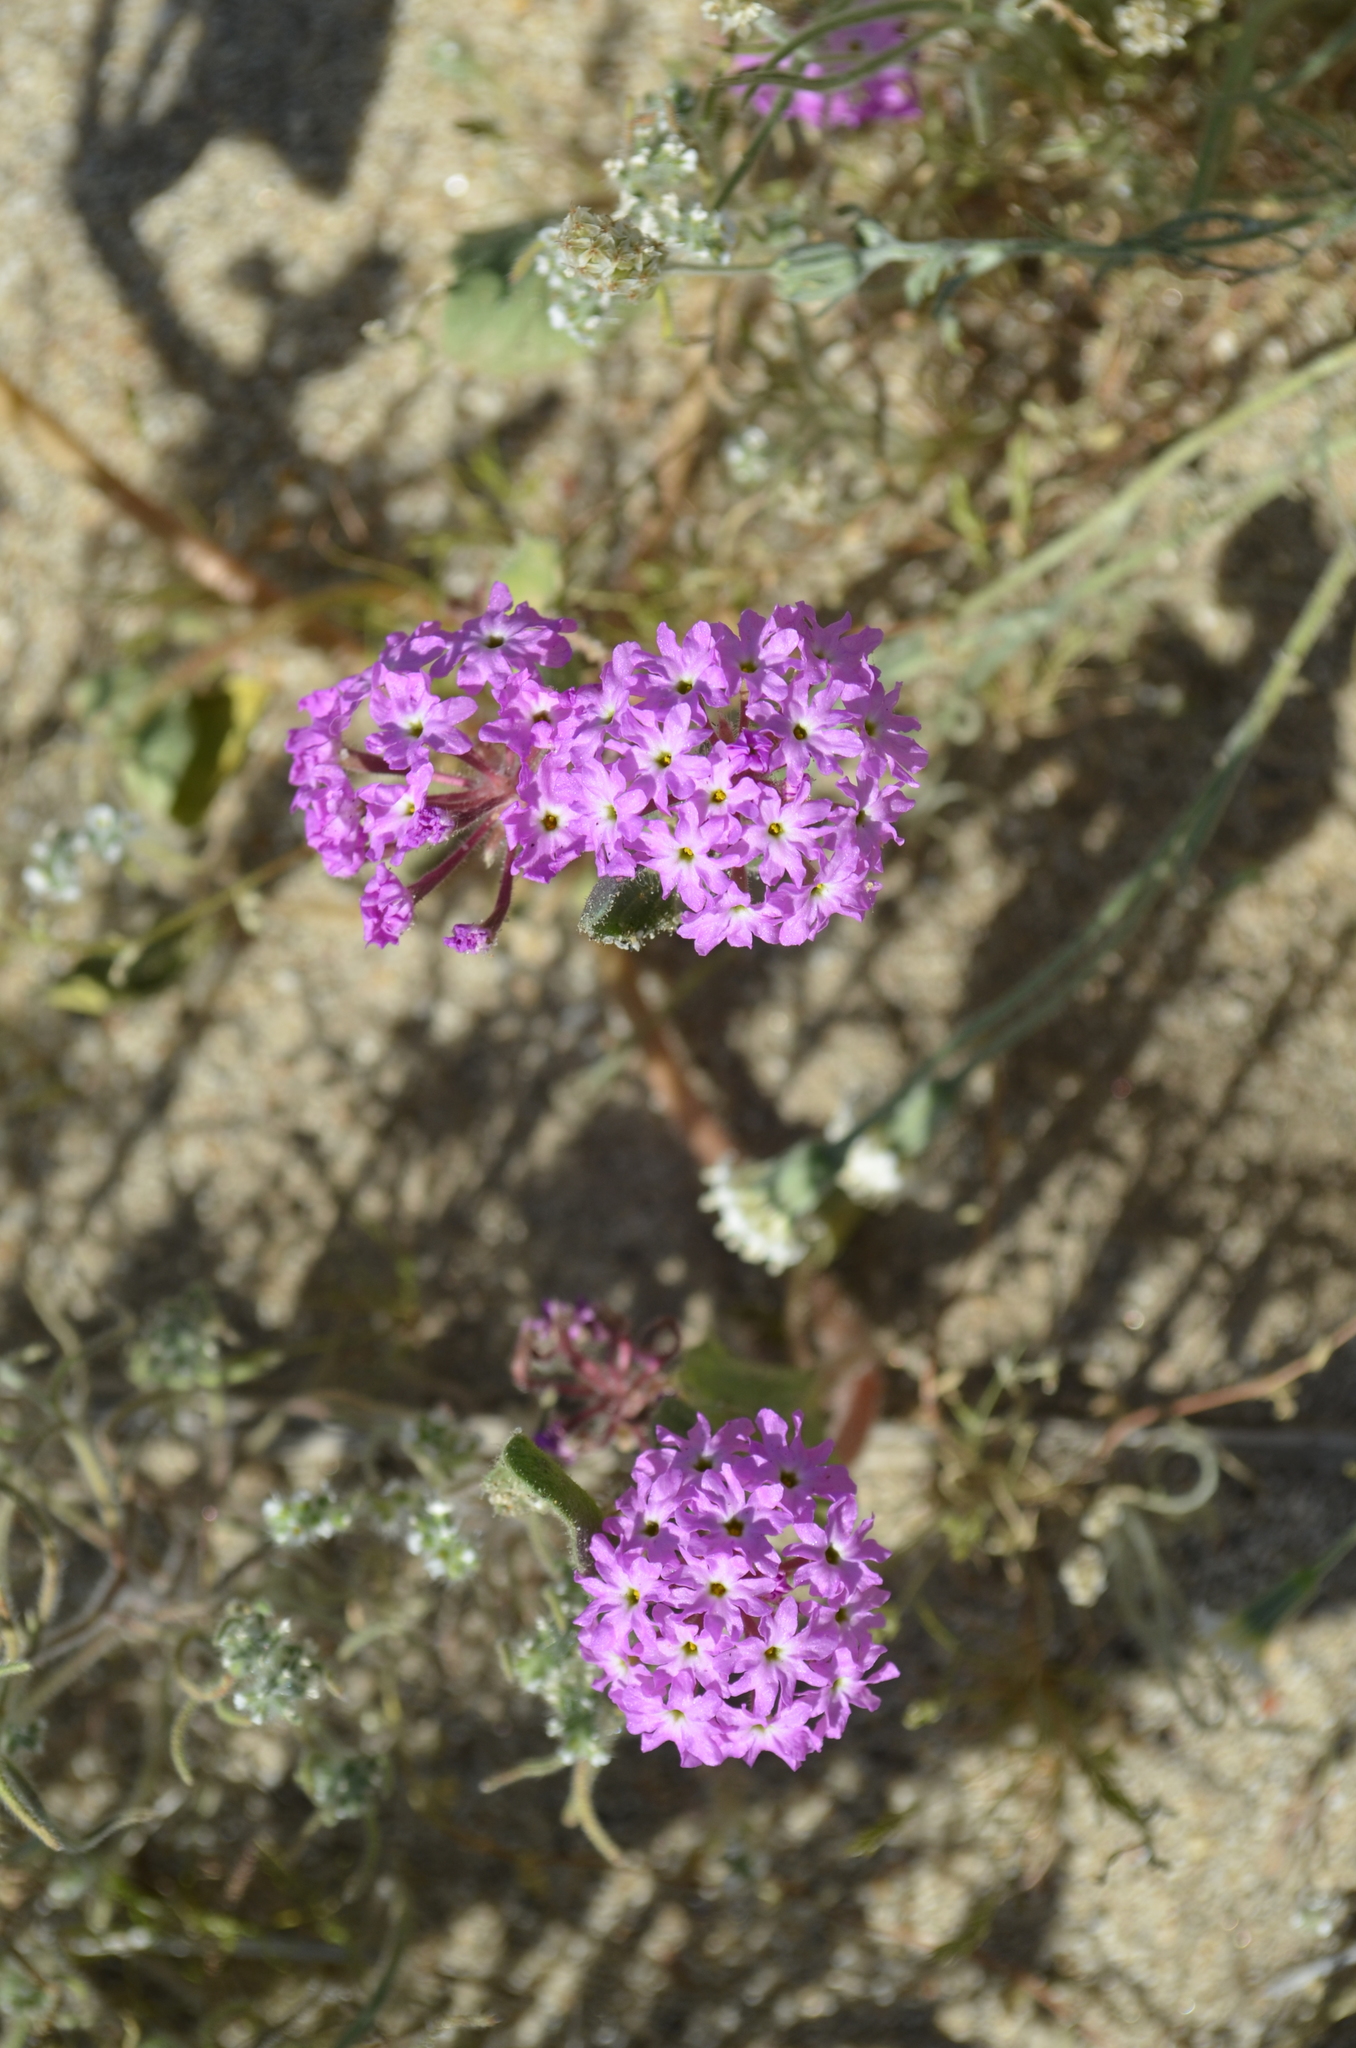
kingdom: Plantae
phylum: Tracheophyta
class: Magnoliopsida
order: Caryophyllales
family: Nyctaginaceae
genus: Abronia
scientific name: Abronia villosa
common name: Desert sand-verbena
